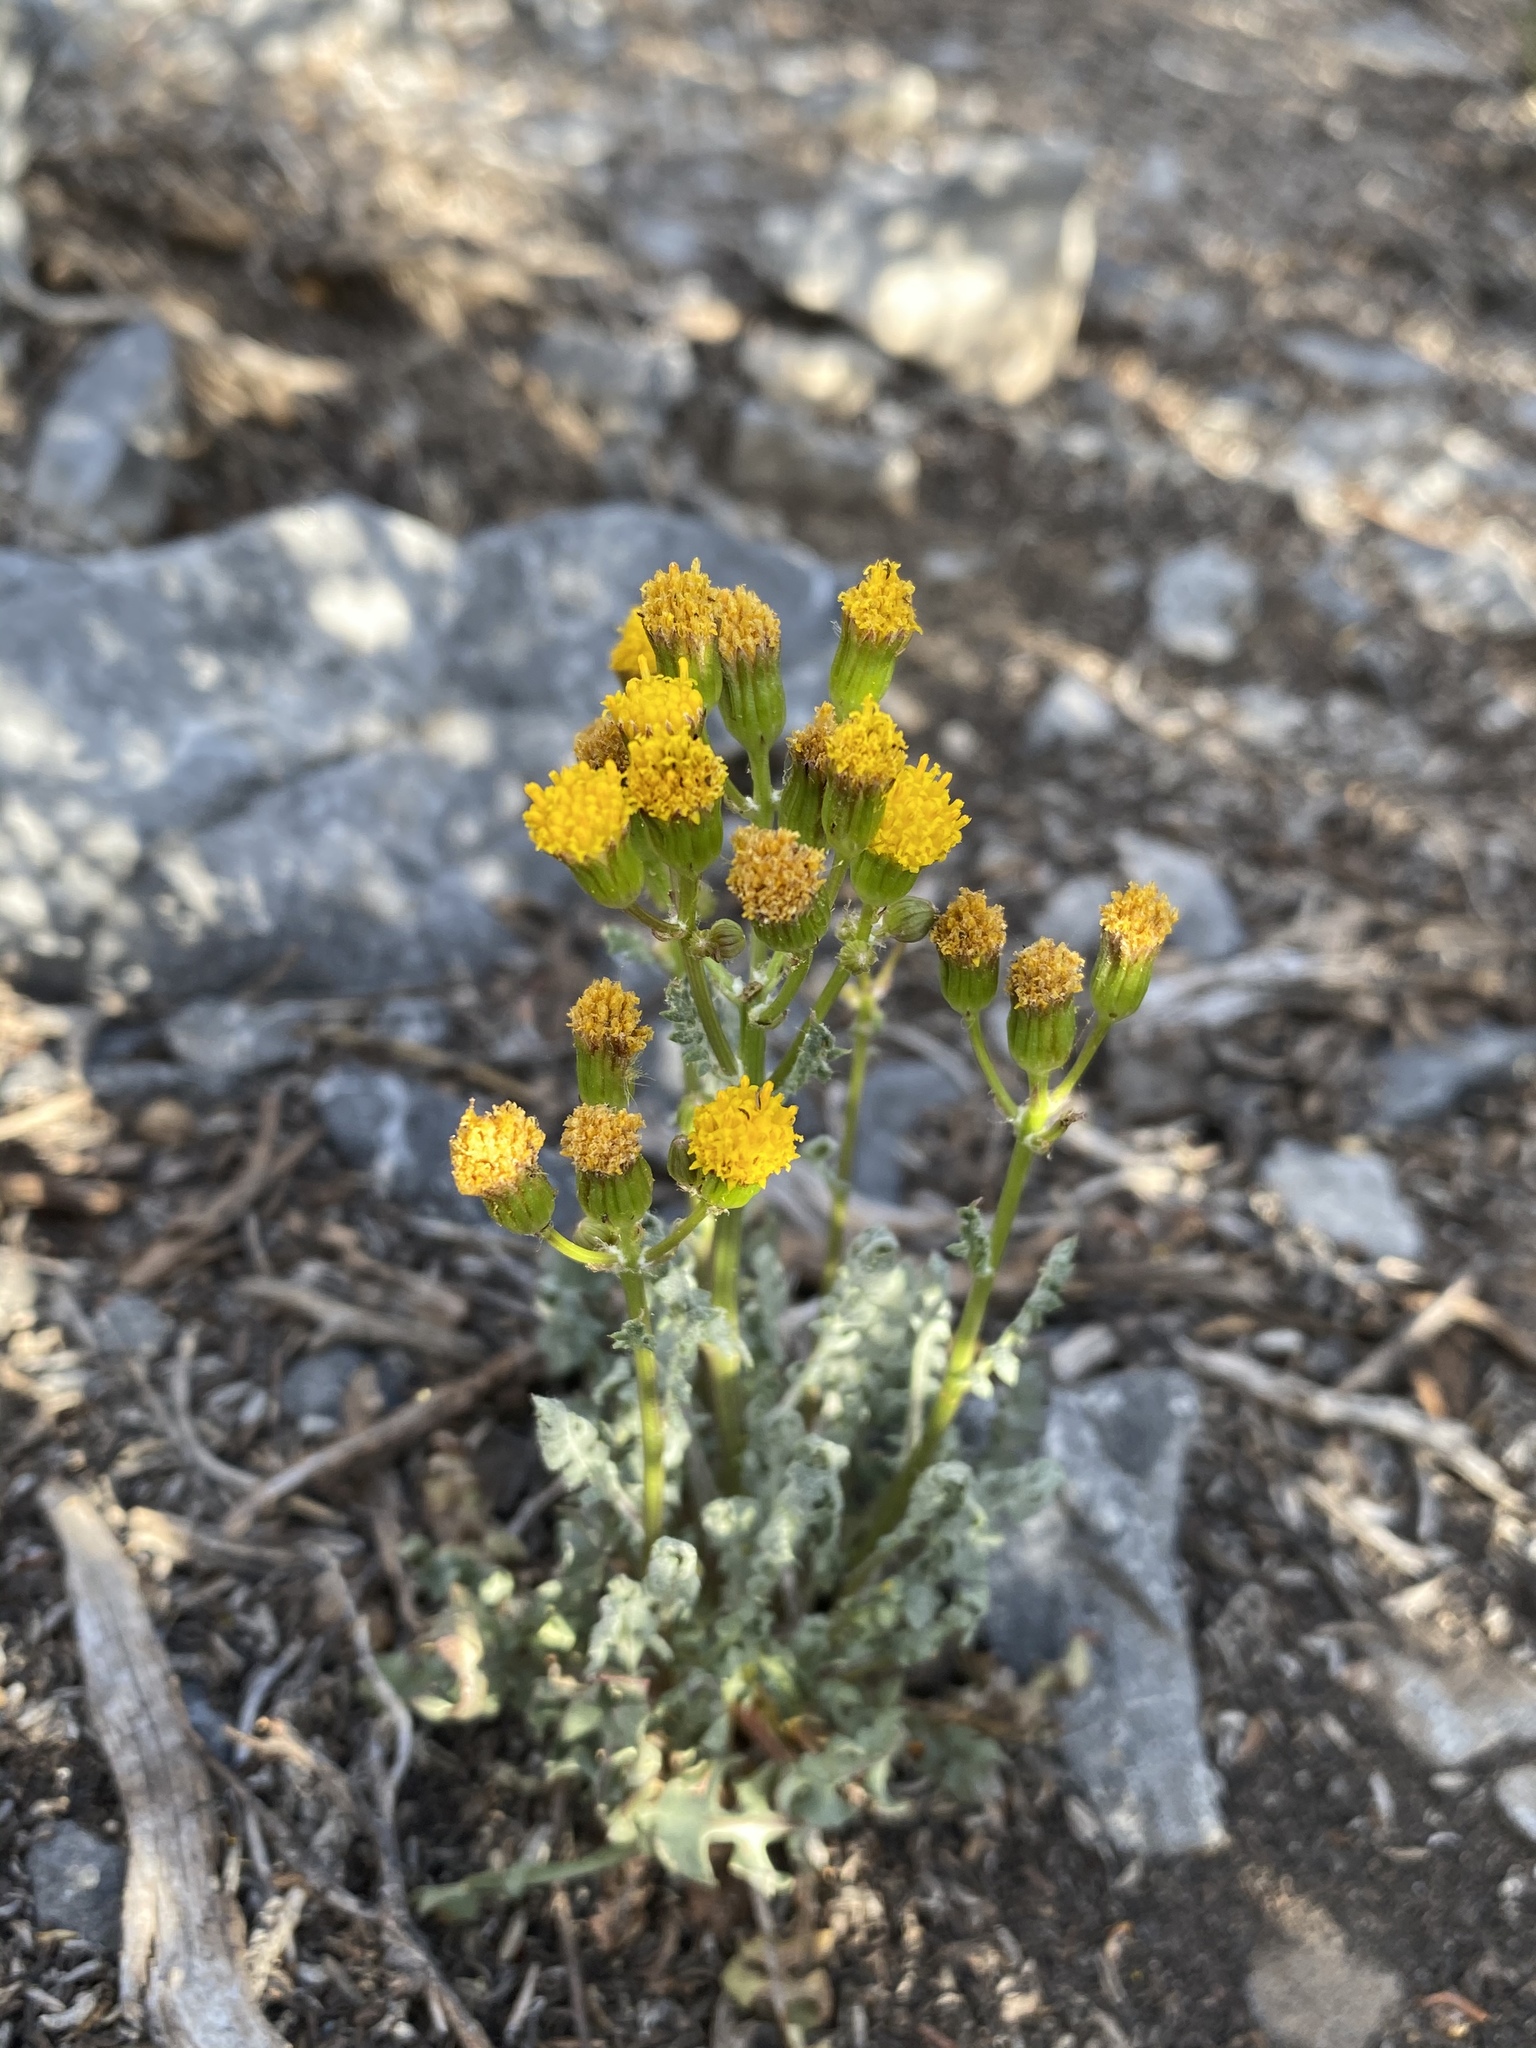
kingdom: Plantae
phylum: Tracheophyta
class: Magnoliopsida
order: Asterales
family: Asteraceae
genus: Packera
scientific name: Packera multilobata
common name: Lobe-leaf groundsel
